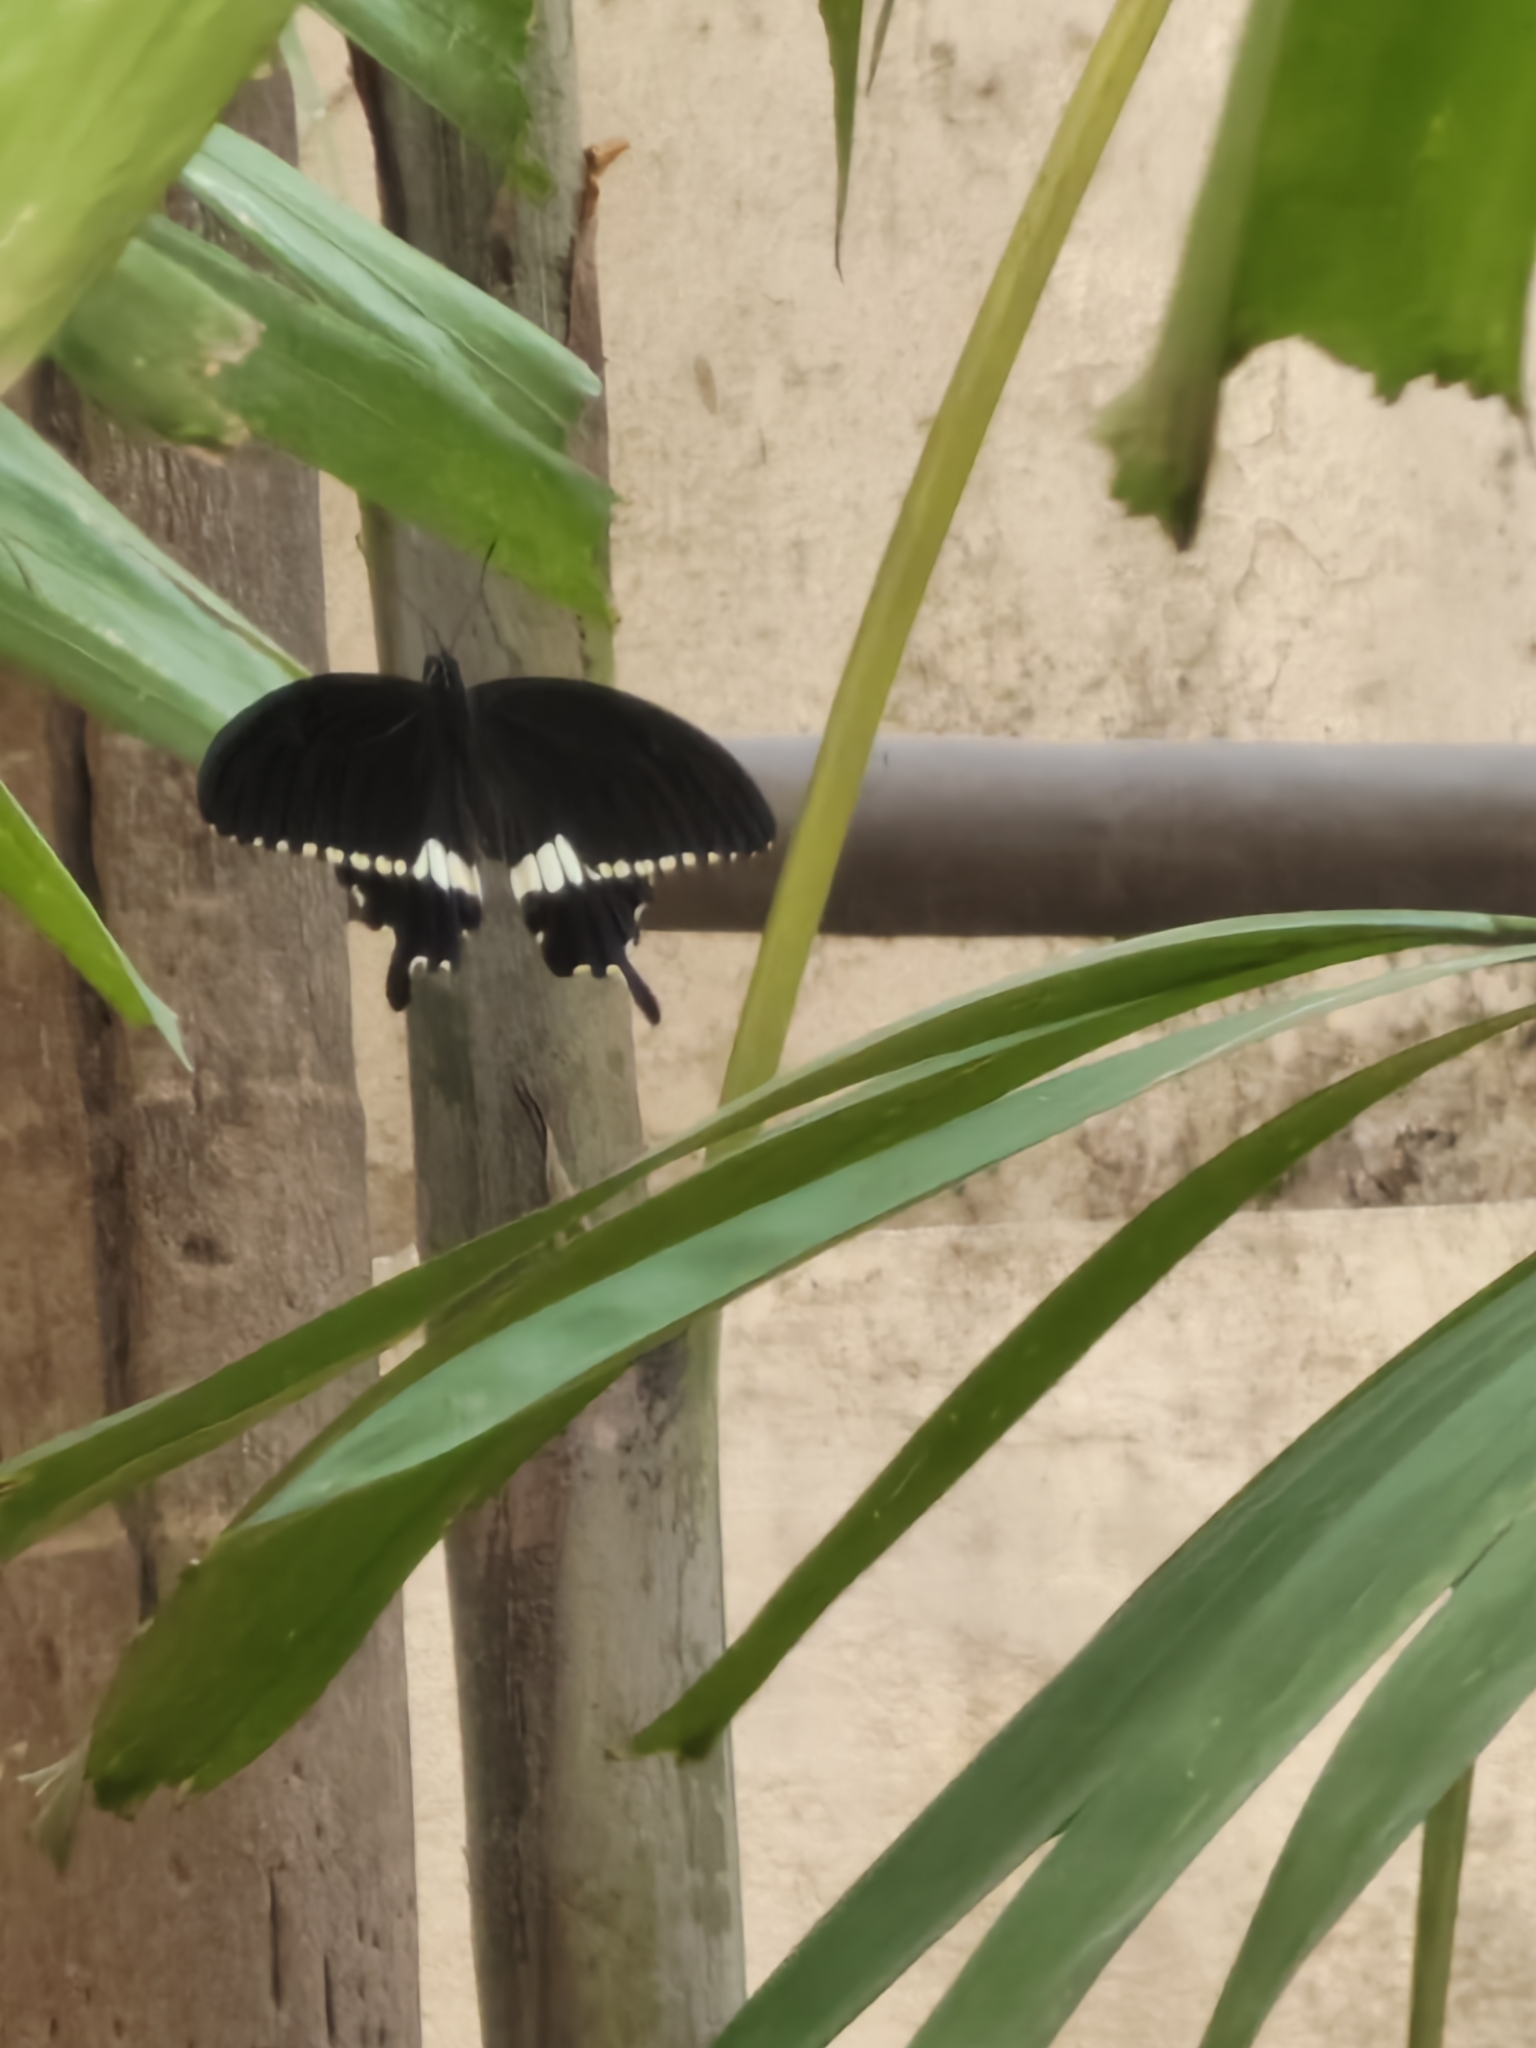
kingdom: Animalia
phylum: Arthropoda
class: Insecta
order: Lepidoptera
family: Papilionidae
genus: Papilio
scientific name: Papilio polytes
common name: Common mormon
